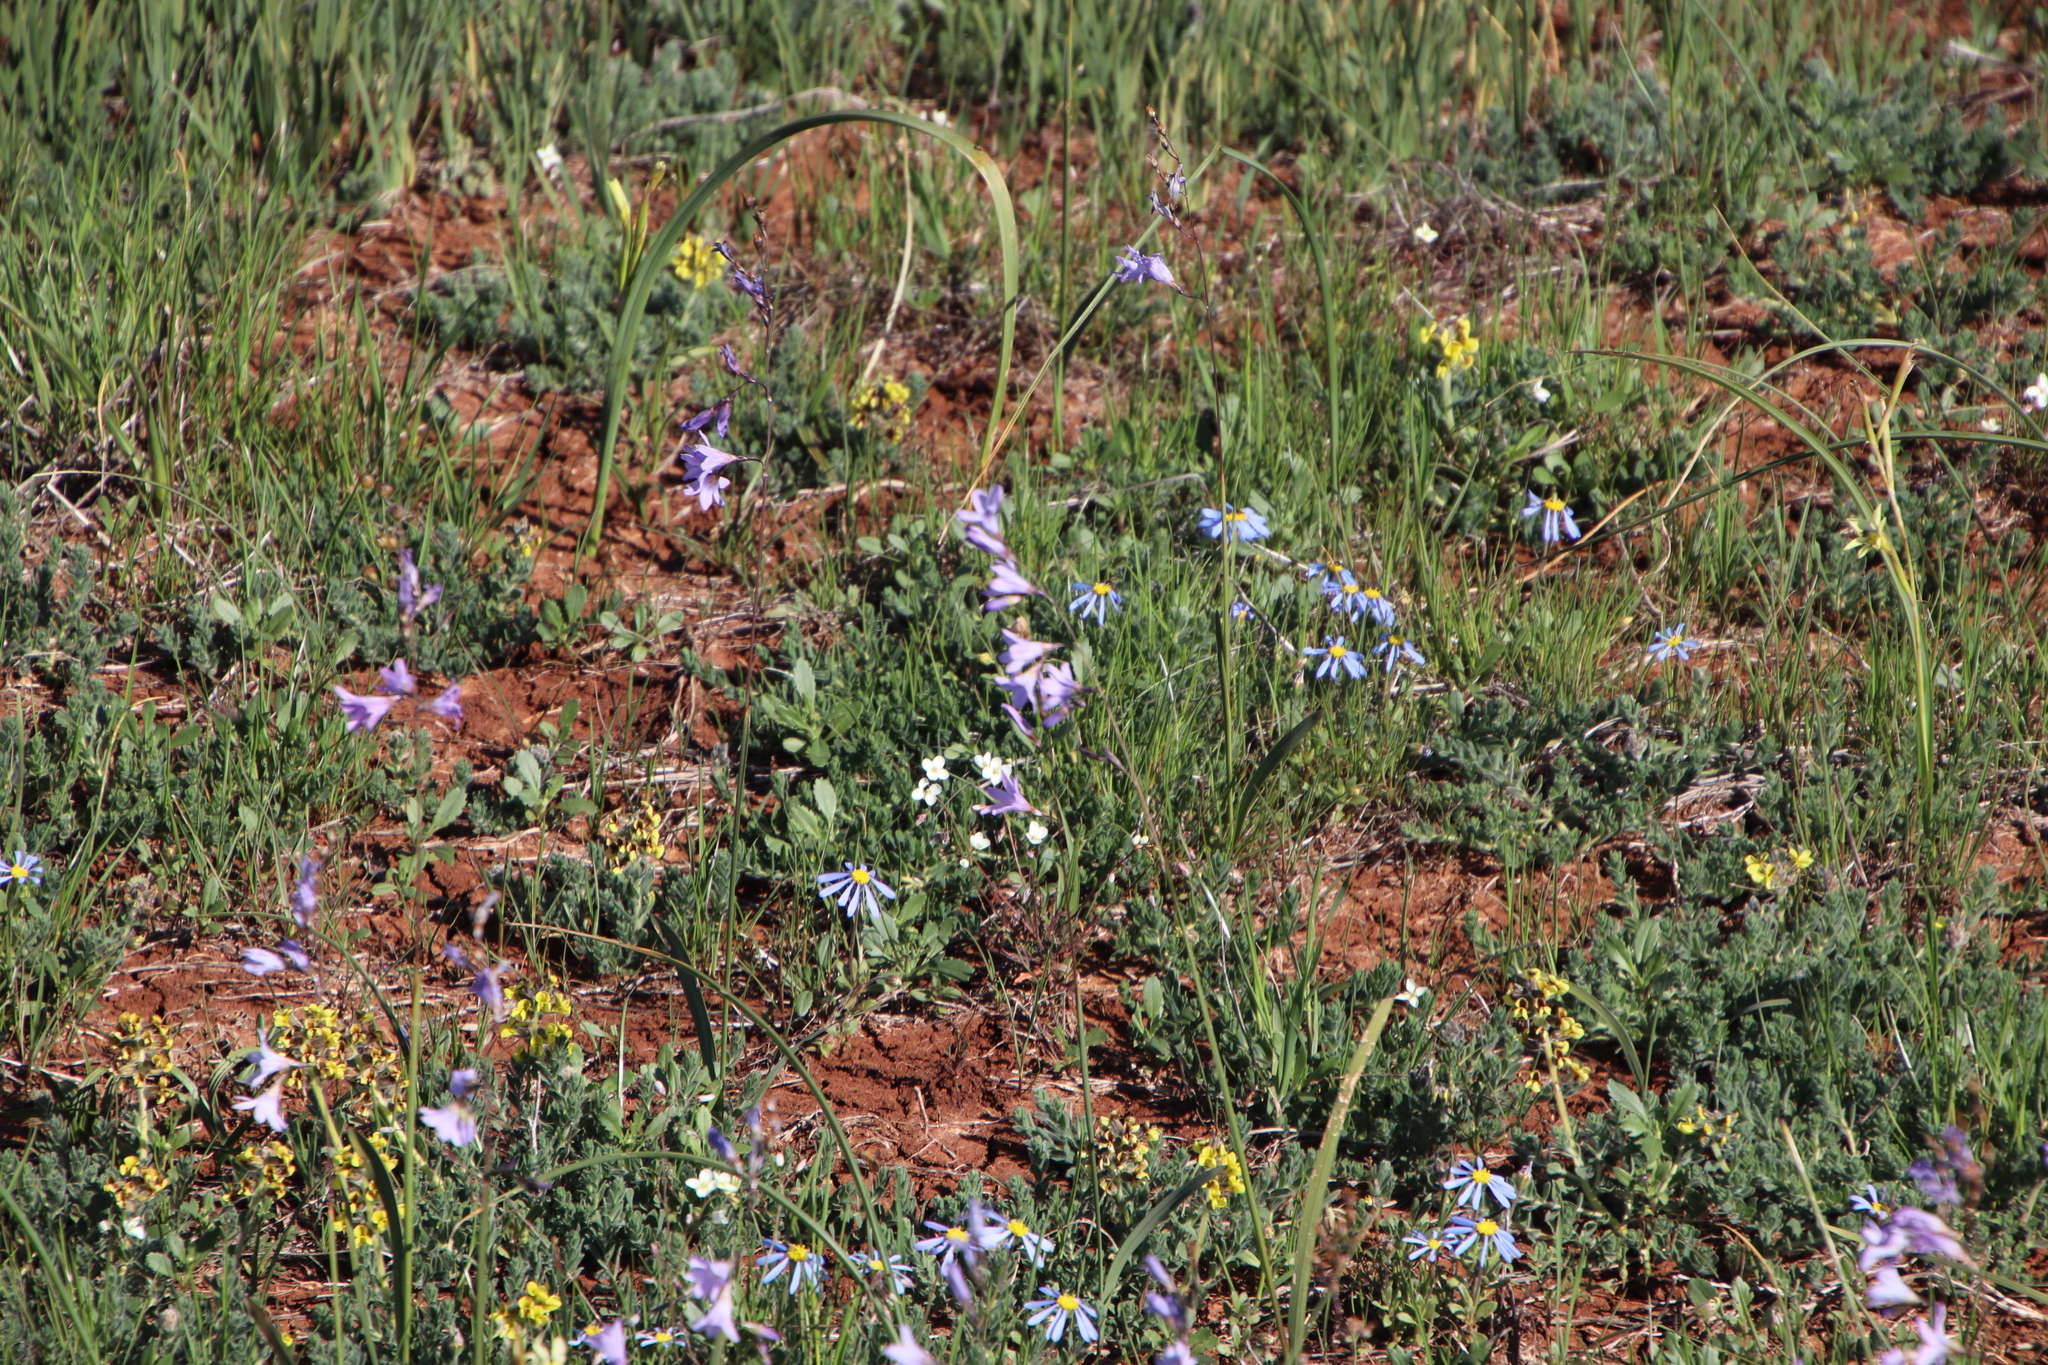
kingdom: Plantae
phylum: Tracheophyta
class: Liliopsida
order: Asparagales
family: Iridaceae
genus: Ixia
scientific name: Ixia rapunculoides
